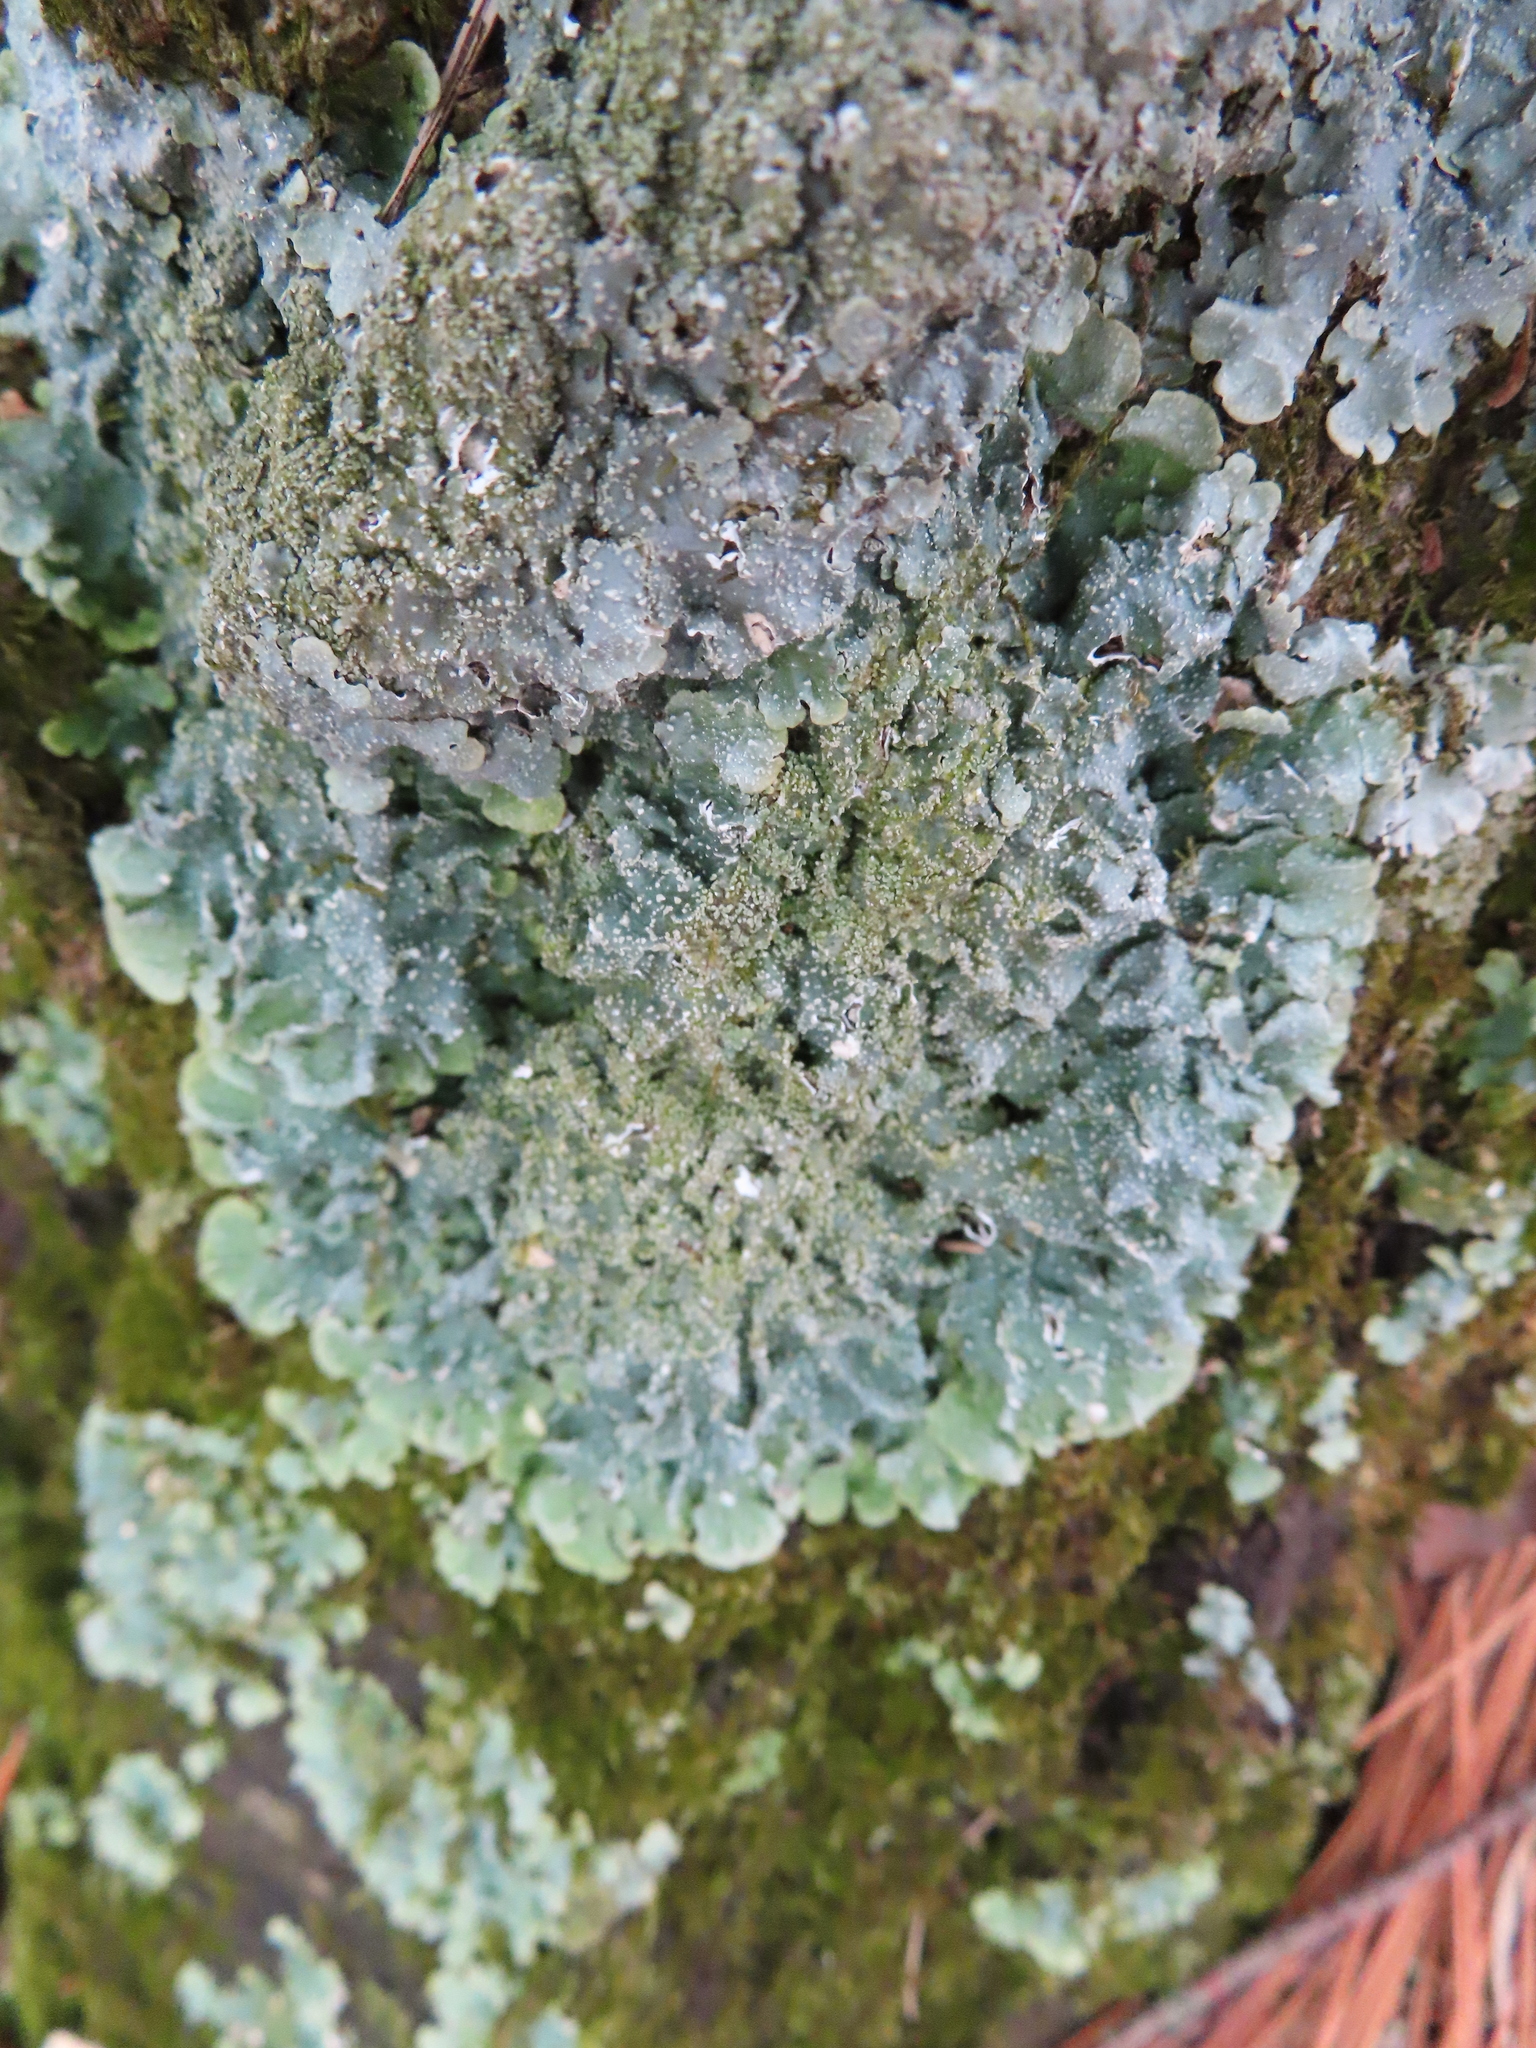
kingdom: Fungi
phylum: Ascomycota
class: Lecanoromycetes
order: Lecanorales
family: Parmeliaceae
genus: Punctelia
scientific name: Punctelia missouriensis
